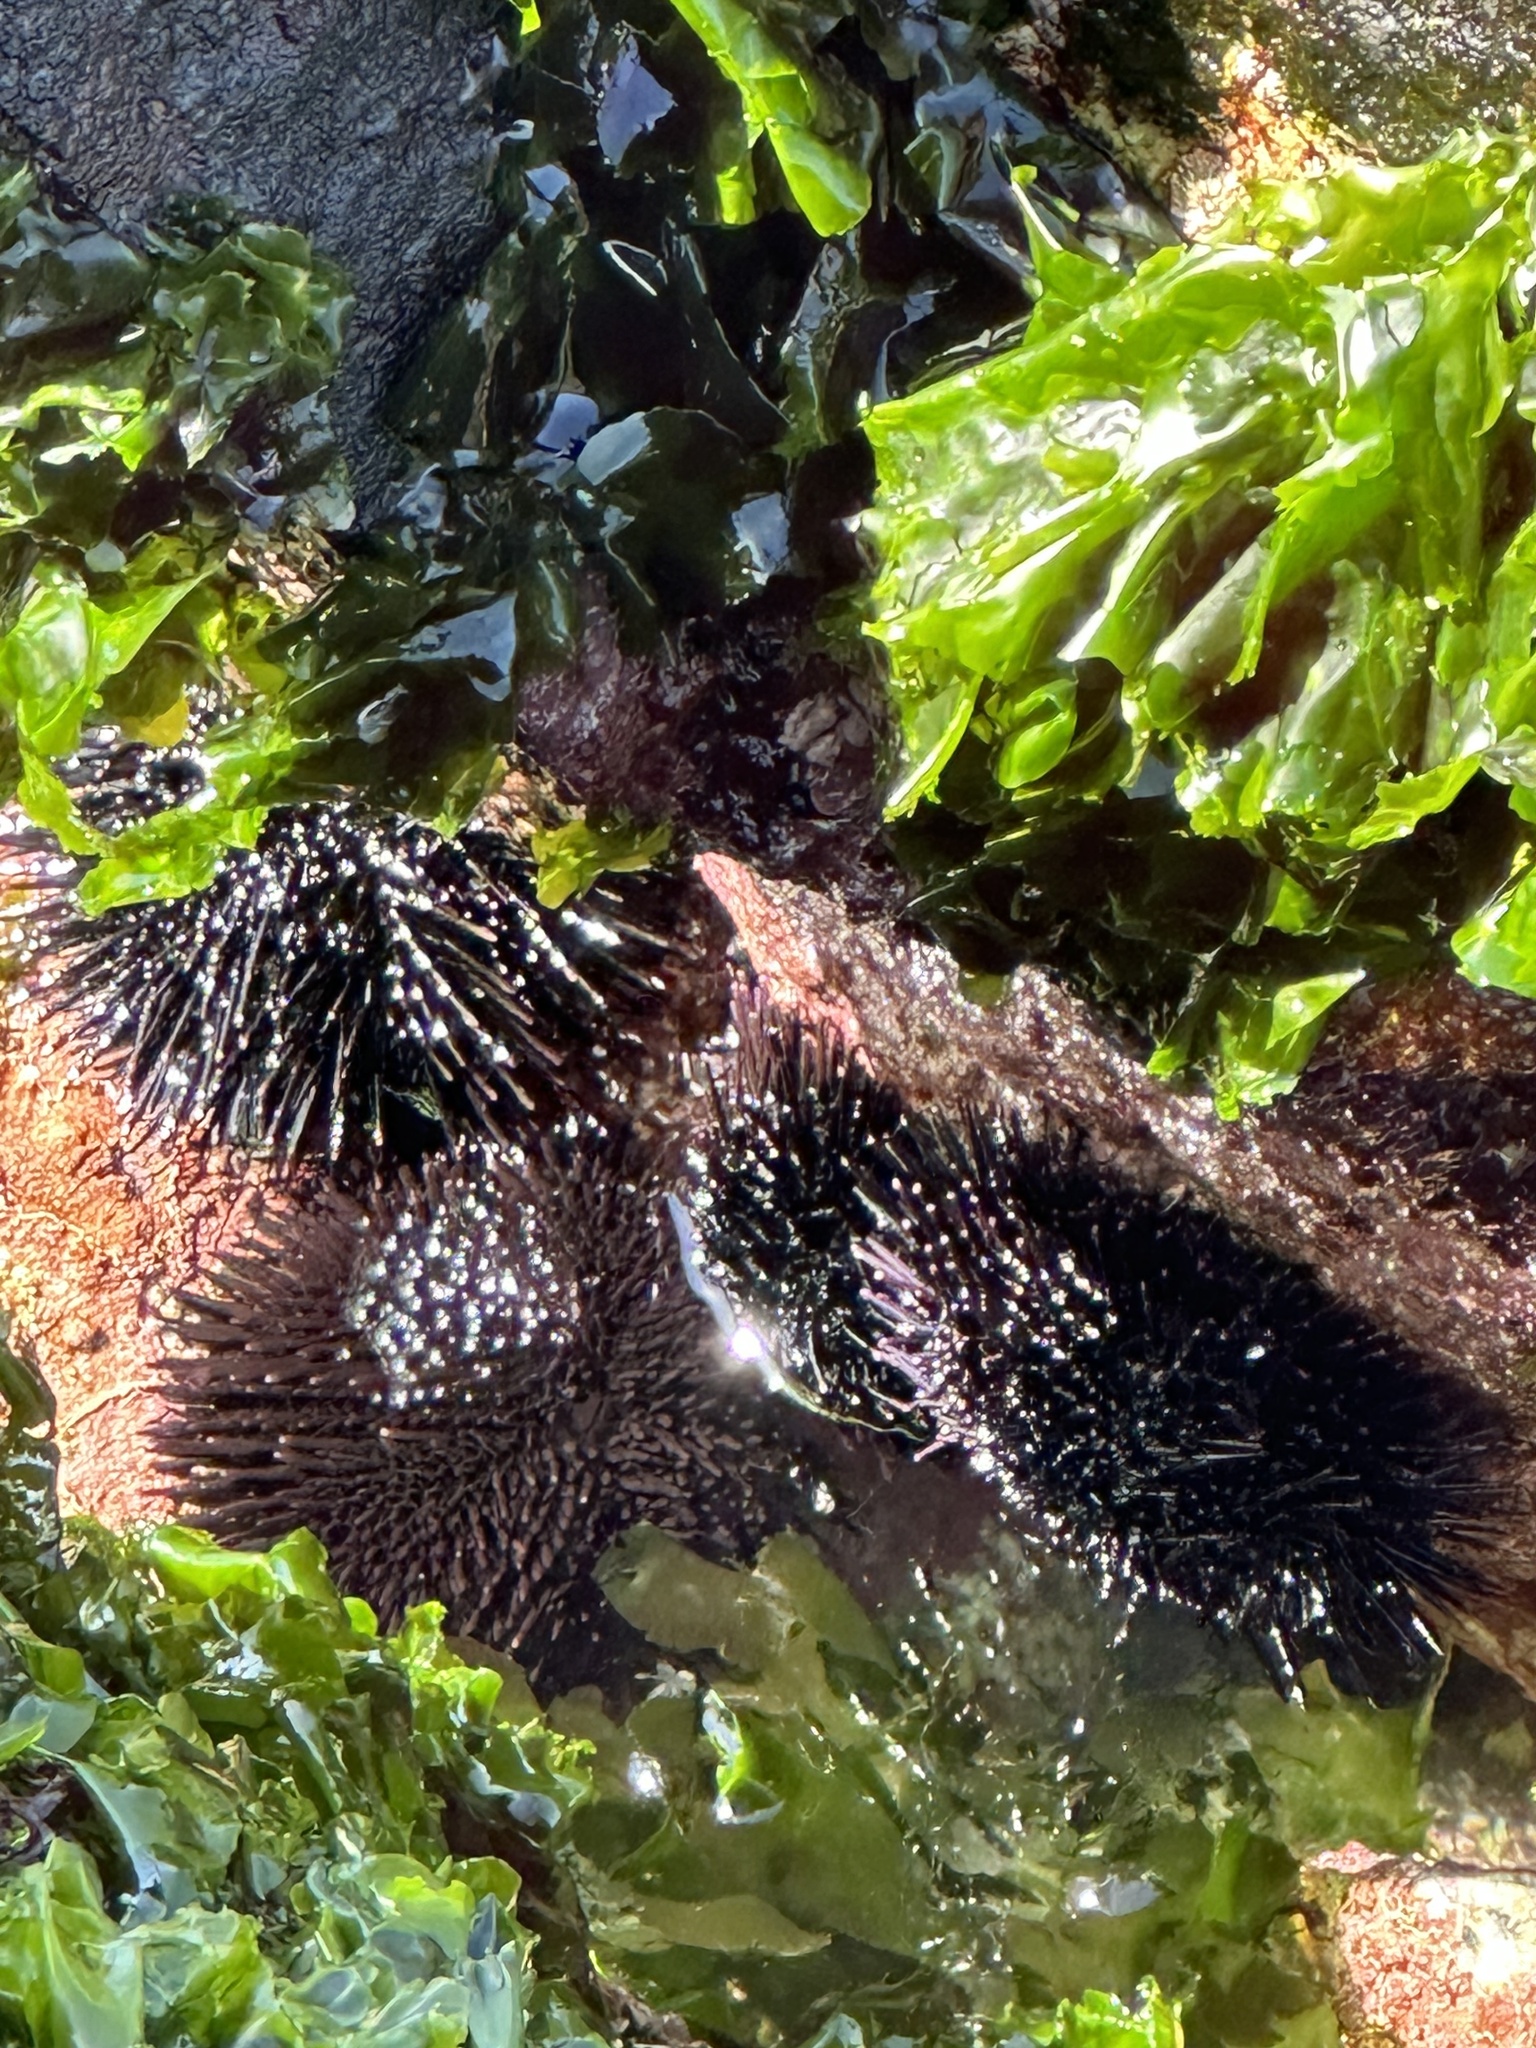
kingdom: Animalia
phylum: Echinodermata
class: Echinoidea
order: Arbacioida
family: Arbaciidae
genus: Tetrapygus
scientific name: Tetrapygus niger
